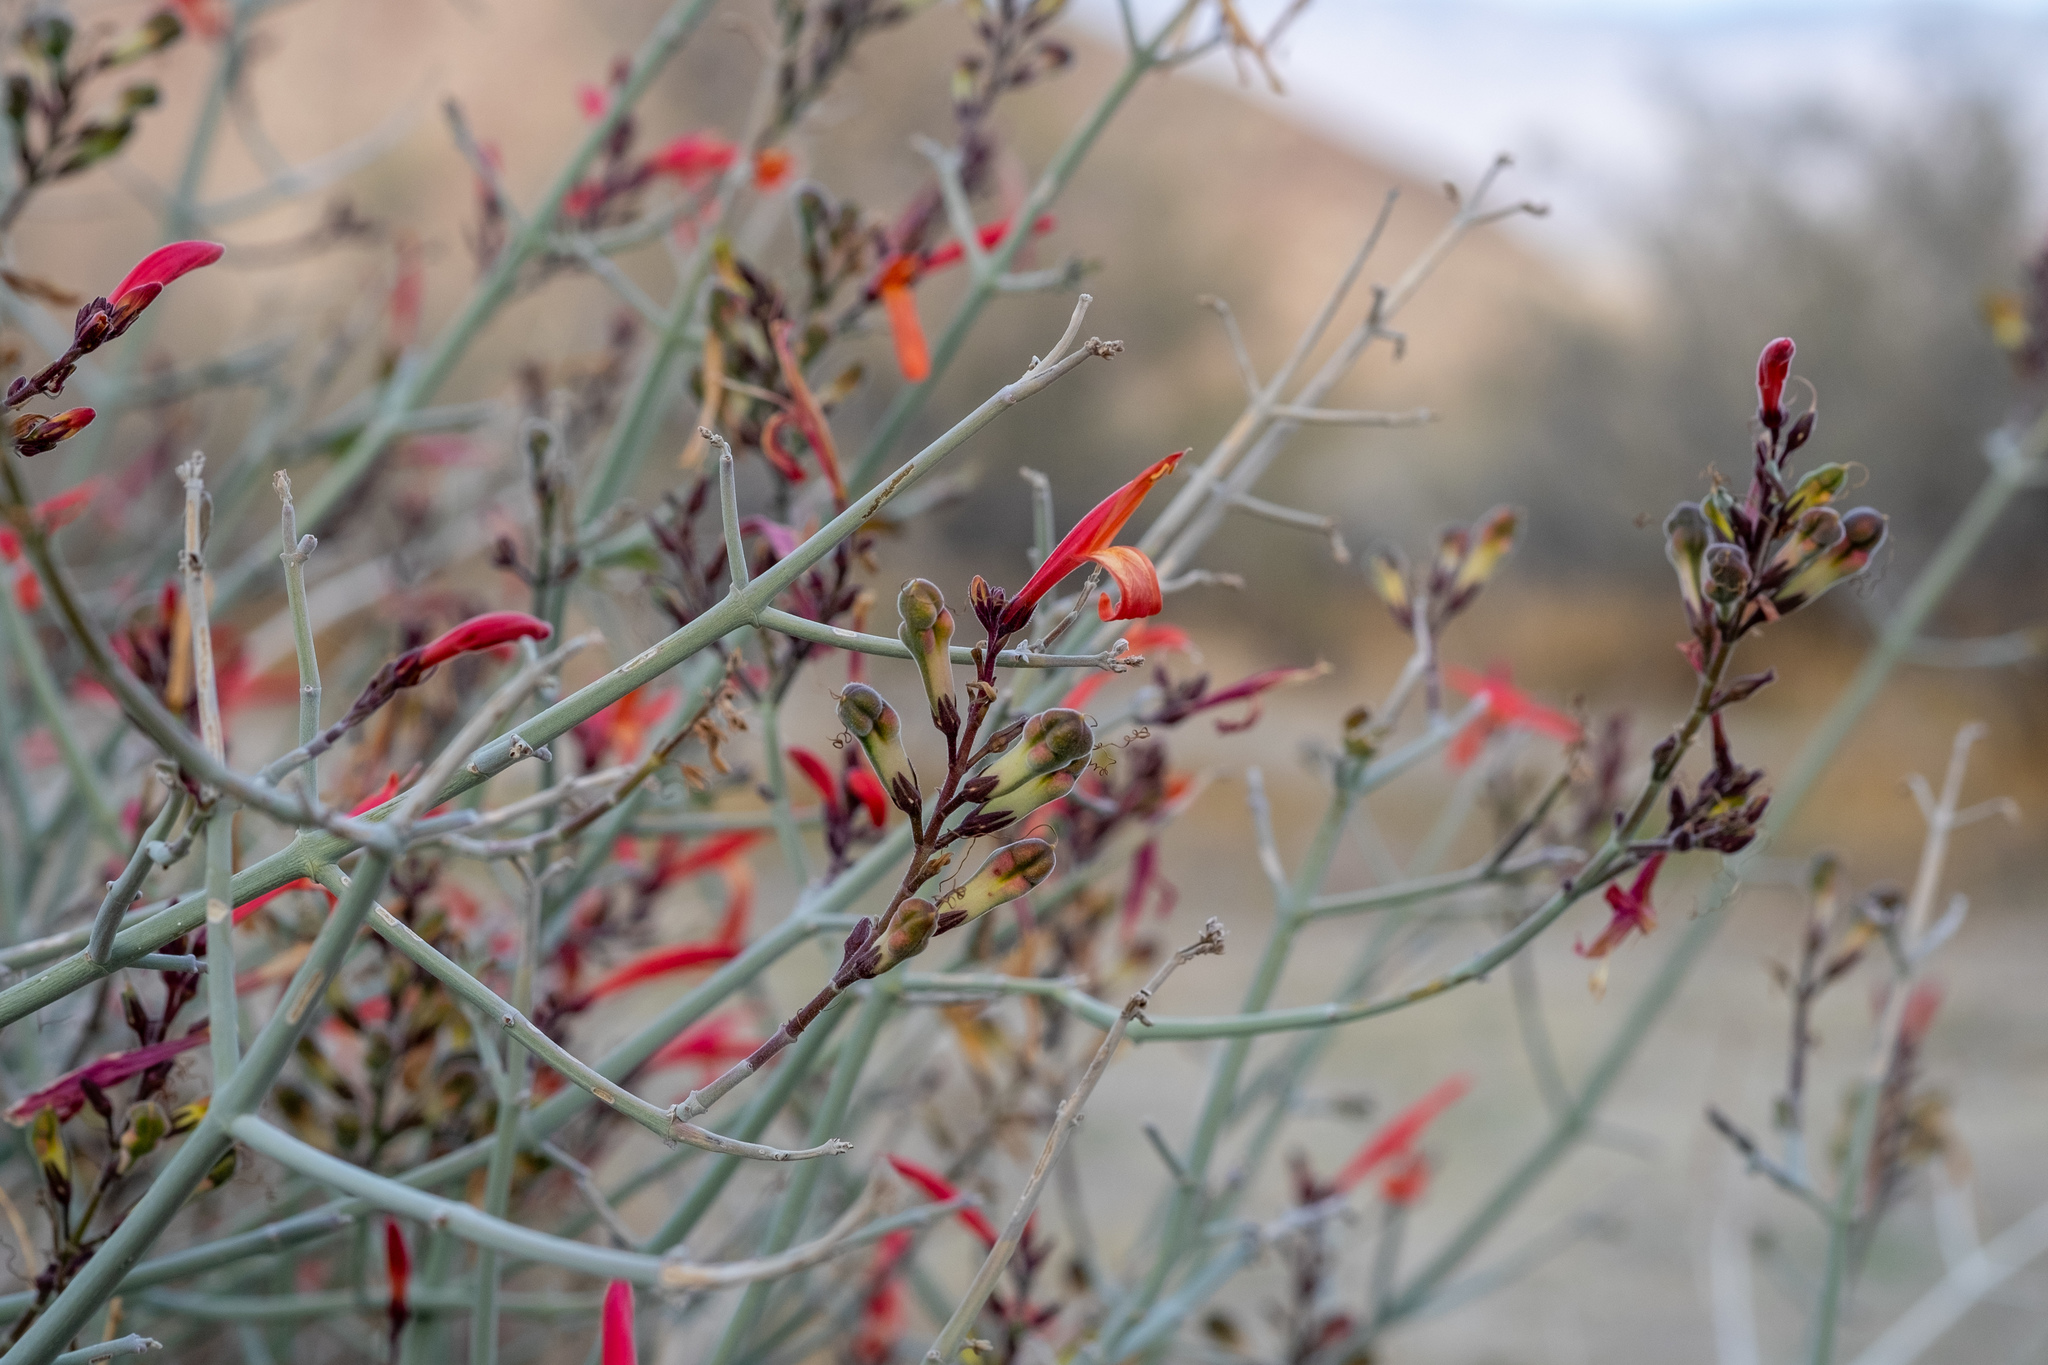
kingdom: Plantae
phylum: Tracheophyta
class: Magnoliopsida
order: Lamiales
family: Acanthaceae
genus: Justicia
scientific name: Justicia californica
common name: Chuparosa-honeysuckle
